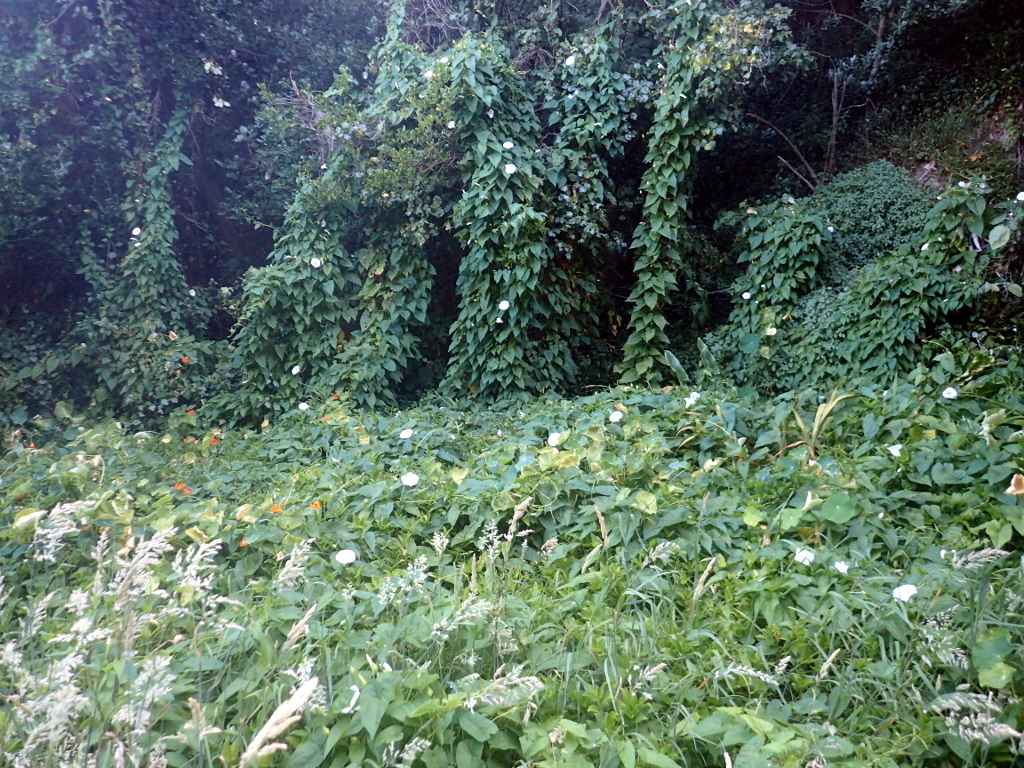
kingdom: Plantae
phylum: Tracheophyta
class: Liliopsida
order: Alismatales
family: Araceae
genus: Zantedeschia
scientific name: Zantedeschia aethiopica
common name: Altar-lily
